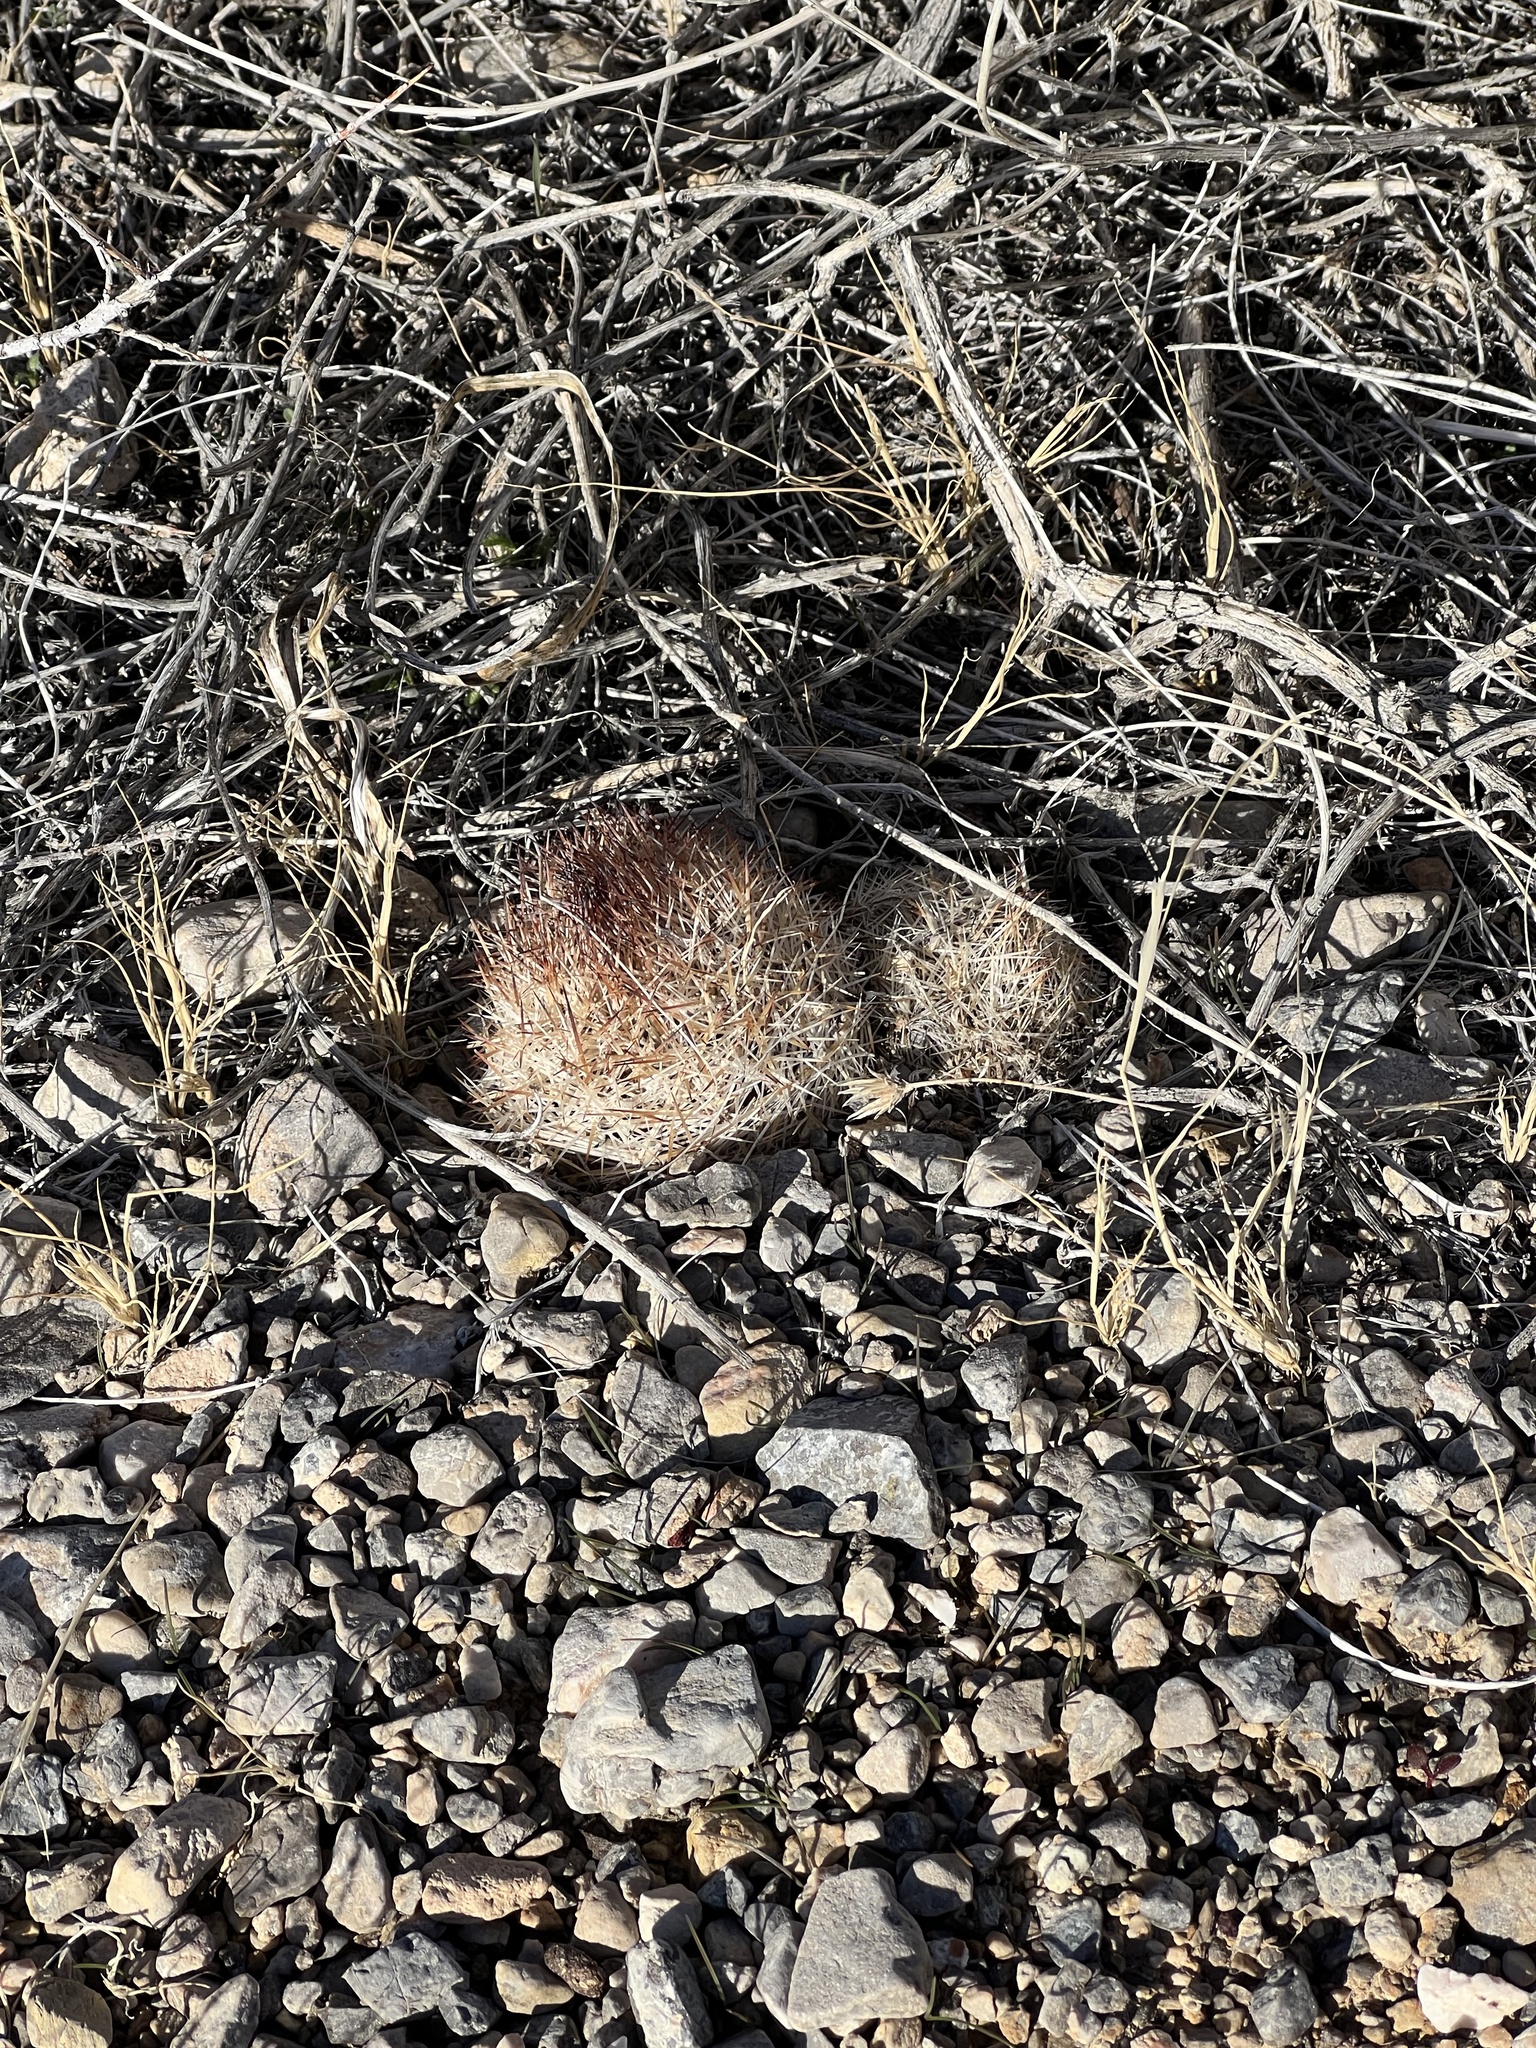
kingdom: Plantae
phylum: Tracheophyta
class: Magnoliopsida
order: Caryophyllales
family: Cactaceae
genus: Pelecyphora
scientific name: Pelecyphora dasyacantha
